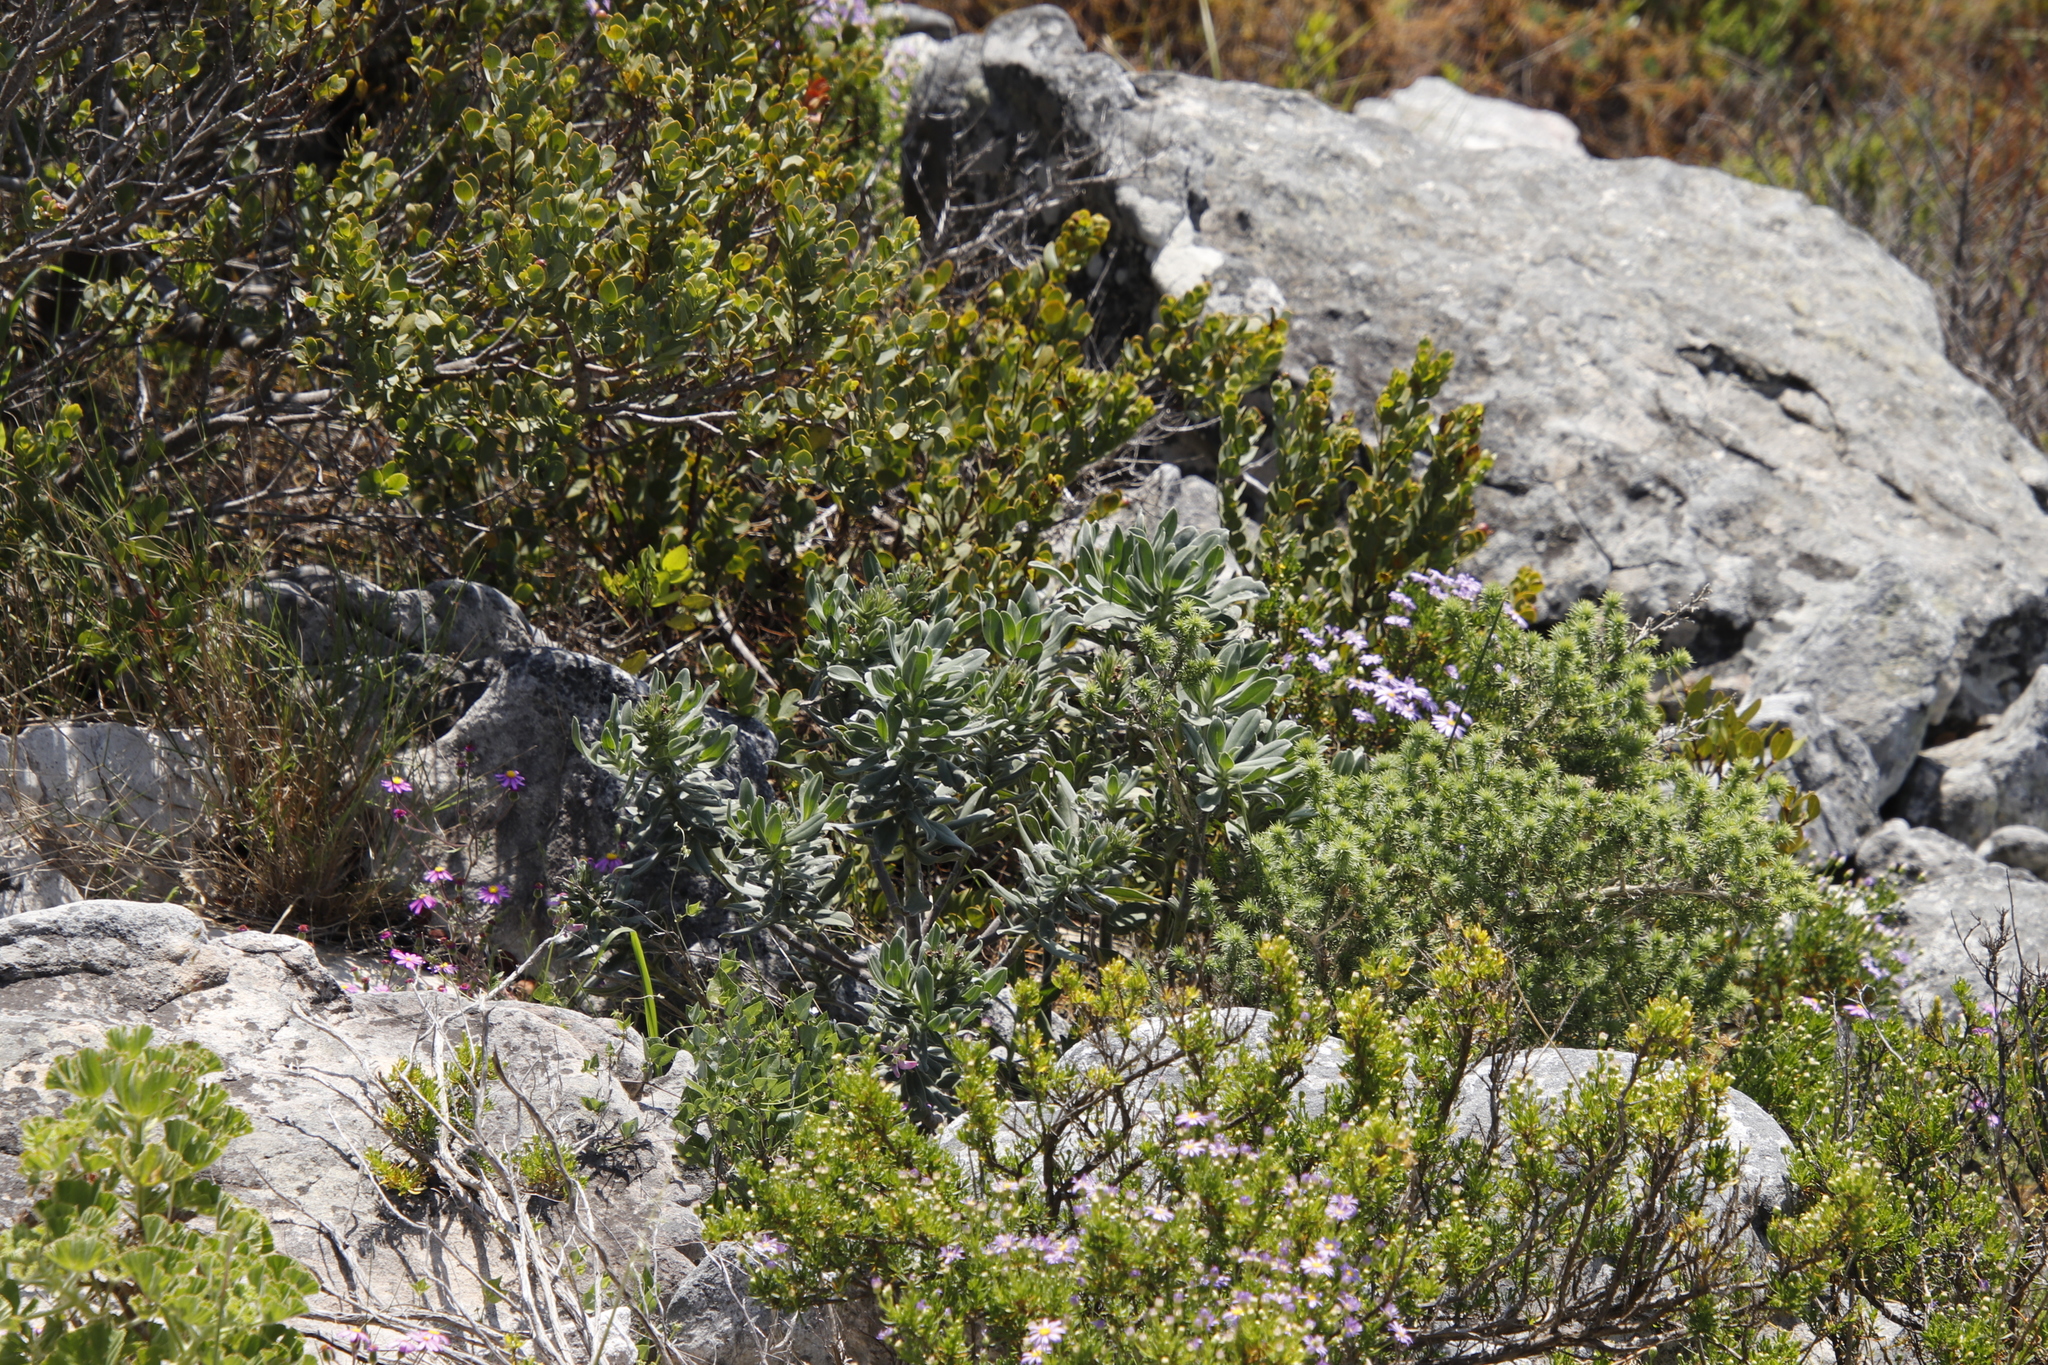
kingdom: Plantae
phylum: Tracheophyta
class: Magnoliopsida
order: Boraginales
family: Boraginaceae
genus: Lobostemon
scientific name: Lobostemon montanus
